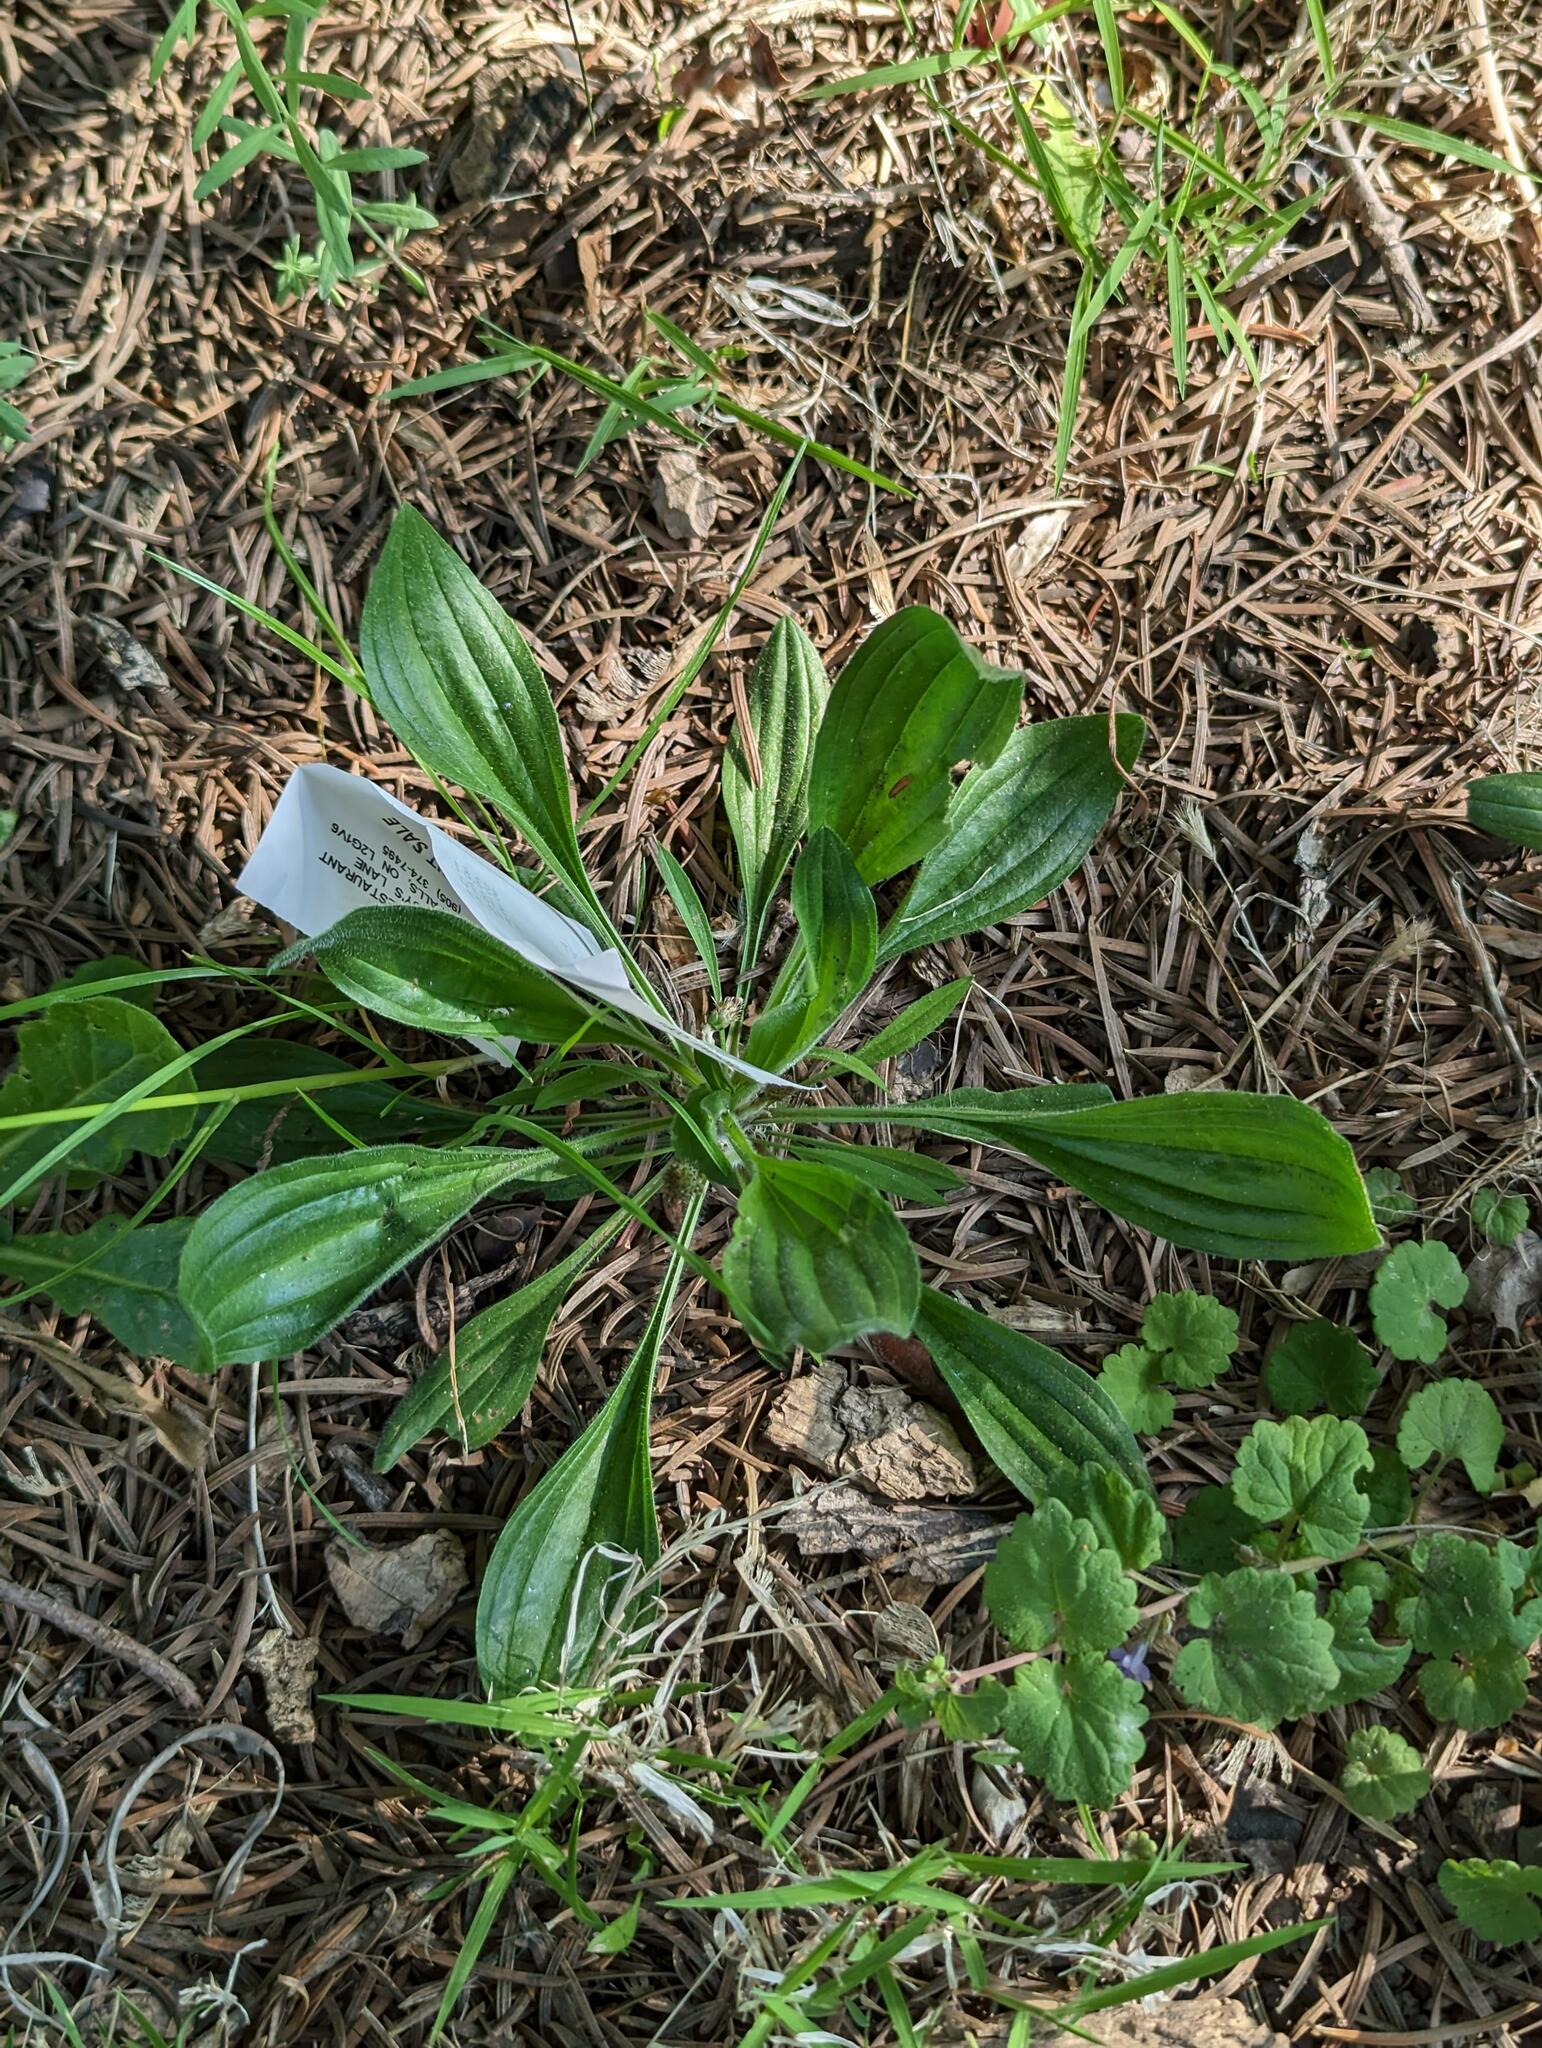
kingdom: Plantae
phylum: Tracheophyta
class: Magnoliopsida
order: Lamiales
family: Plantaginaceae
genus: Plantago
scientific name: Plantago lanceolata
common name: Ribwort plantain
